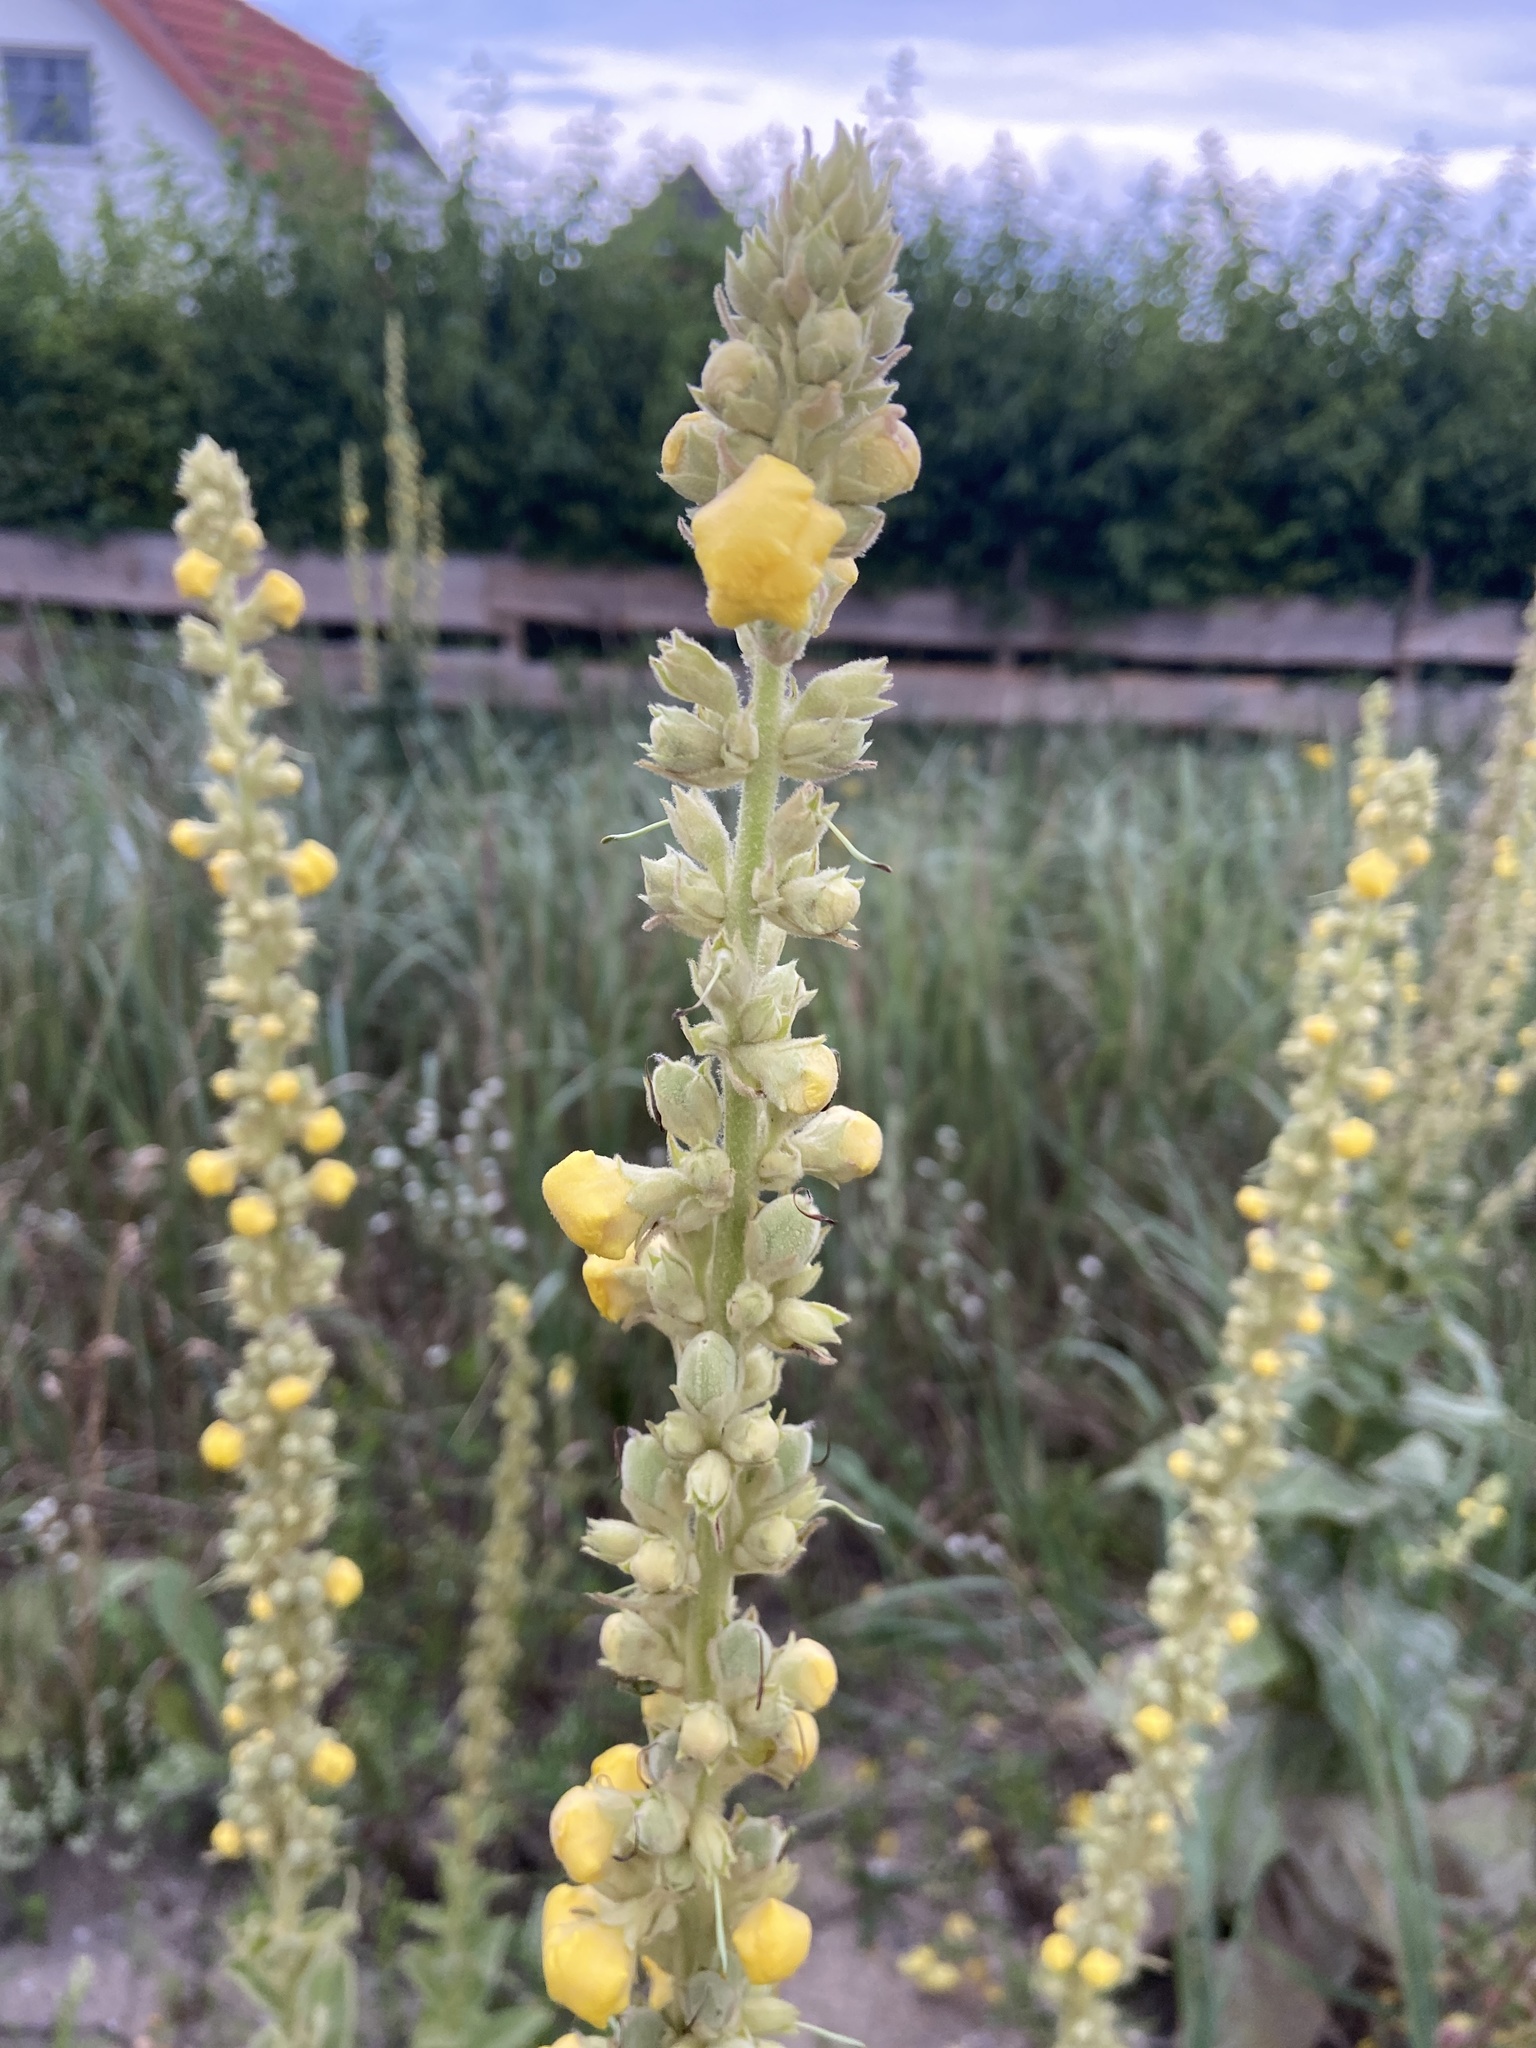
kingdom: Plantae
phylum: Tracheophyta
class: Magnoliopsida
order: Lamiales
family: Scrophulariaceae
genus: Verbascum
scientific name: Verbascum thapsus
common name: Common mullein
